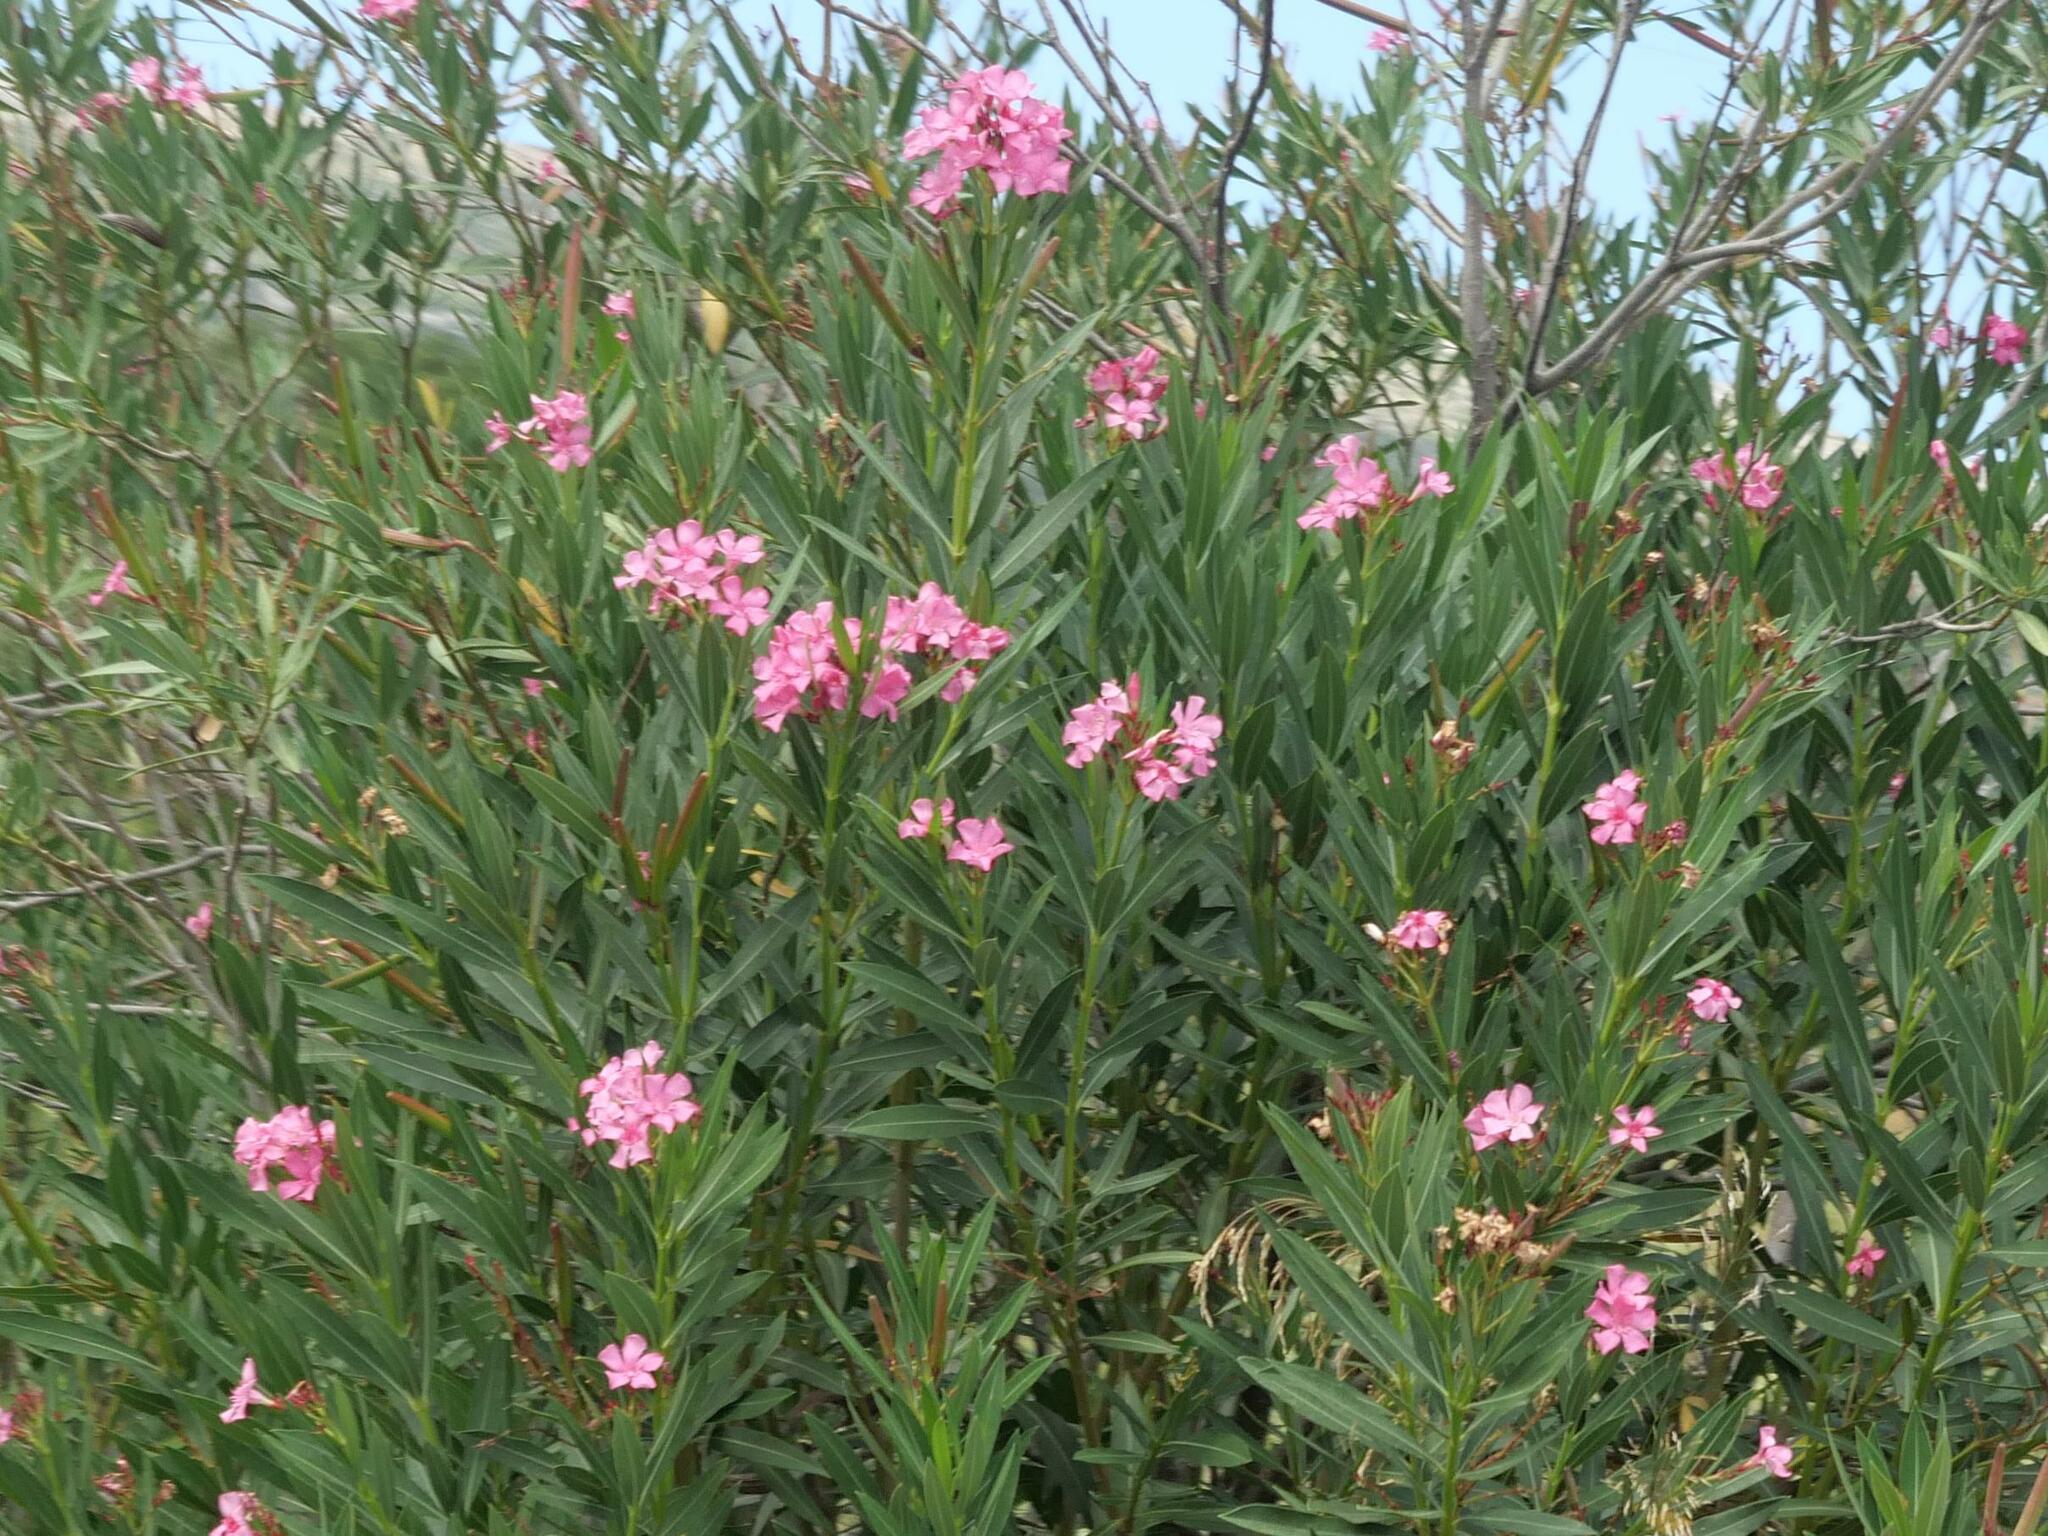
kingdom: Plantae
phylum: Tracheophyta
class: Magnoliopsida
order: Gentianales
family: Apocynaceae
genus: Nerium
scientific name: Nerium oleander
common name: Oleander
